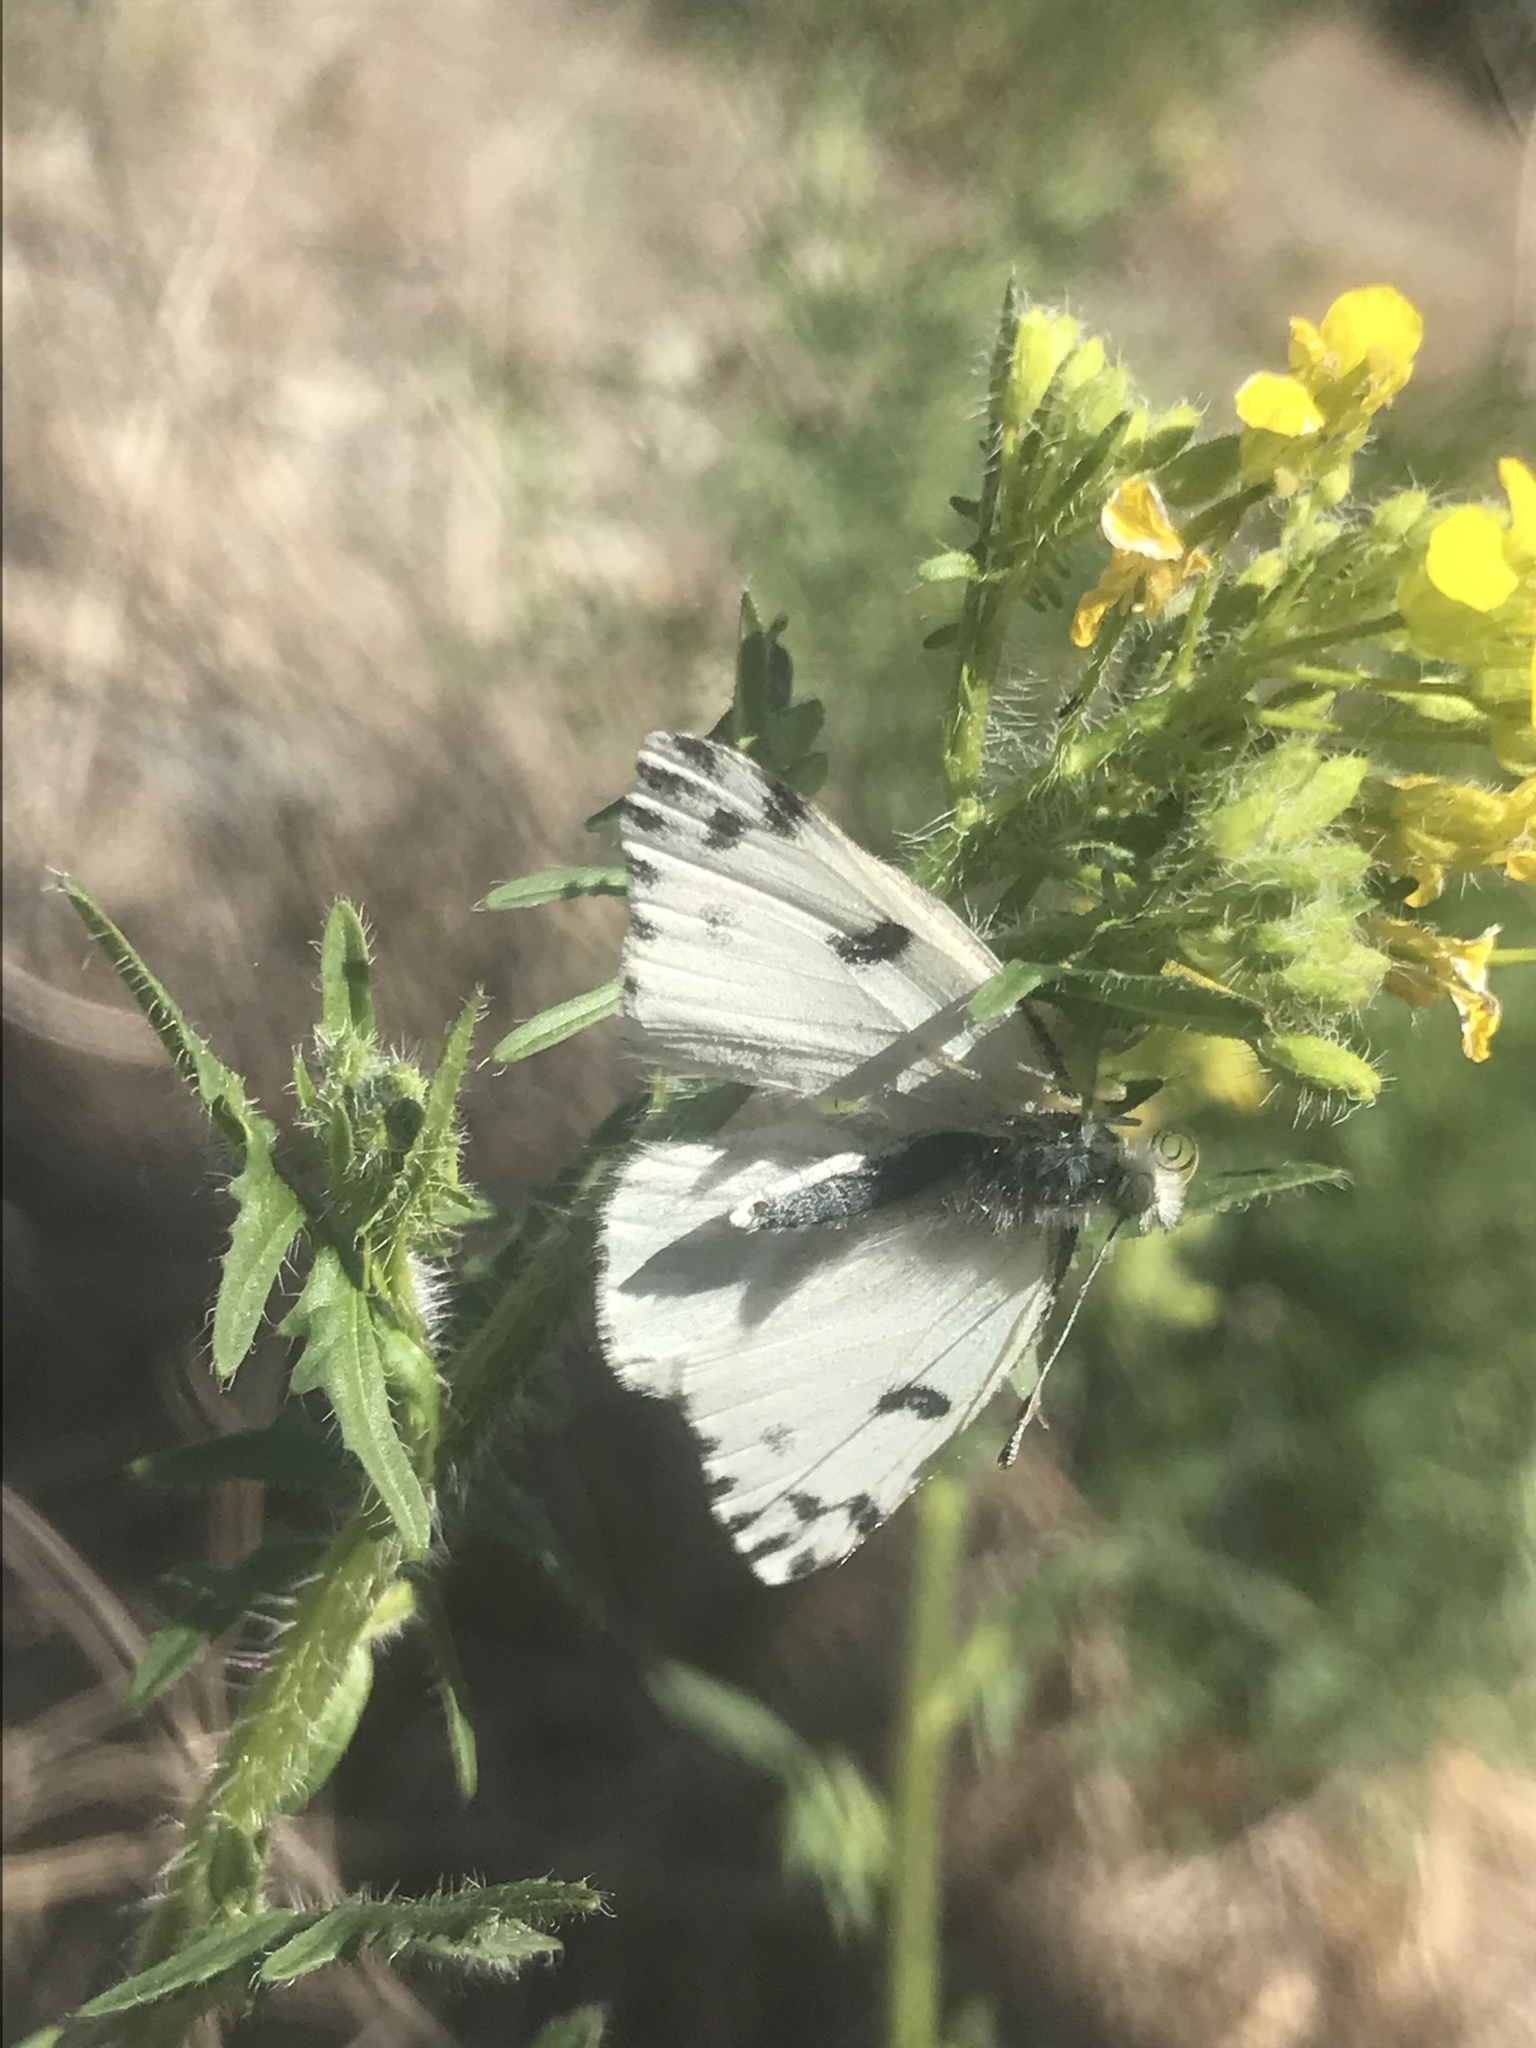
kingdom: Animalia
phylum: Arthropoda
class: Insecta
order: Lepidoptera
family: Pieridae
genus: Pontia
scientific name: Pontia sisymbrii
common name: California white
